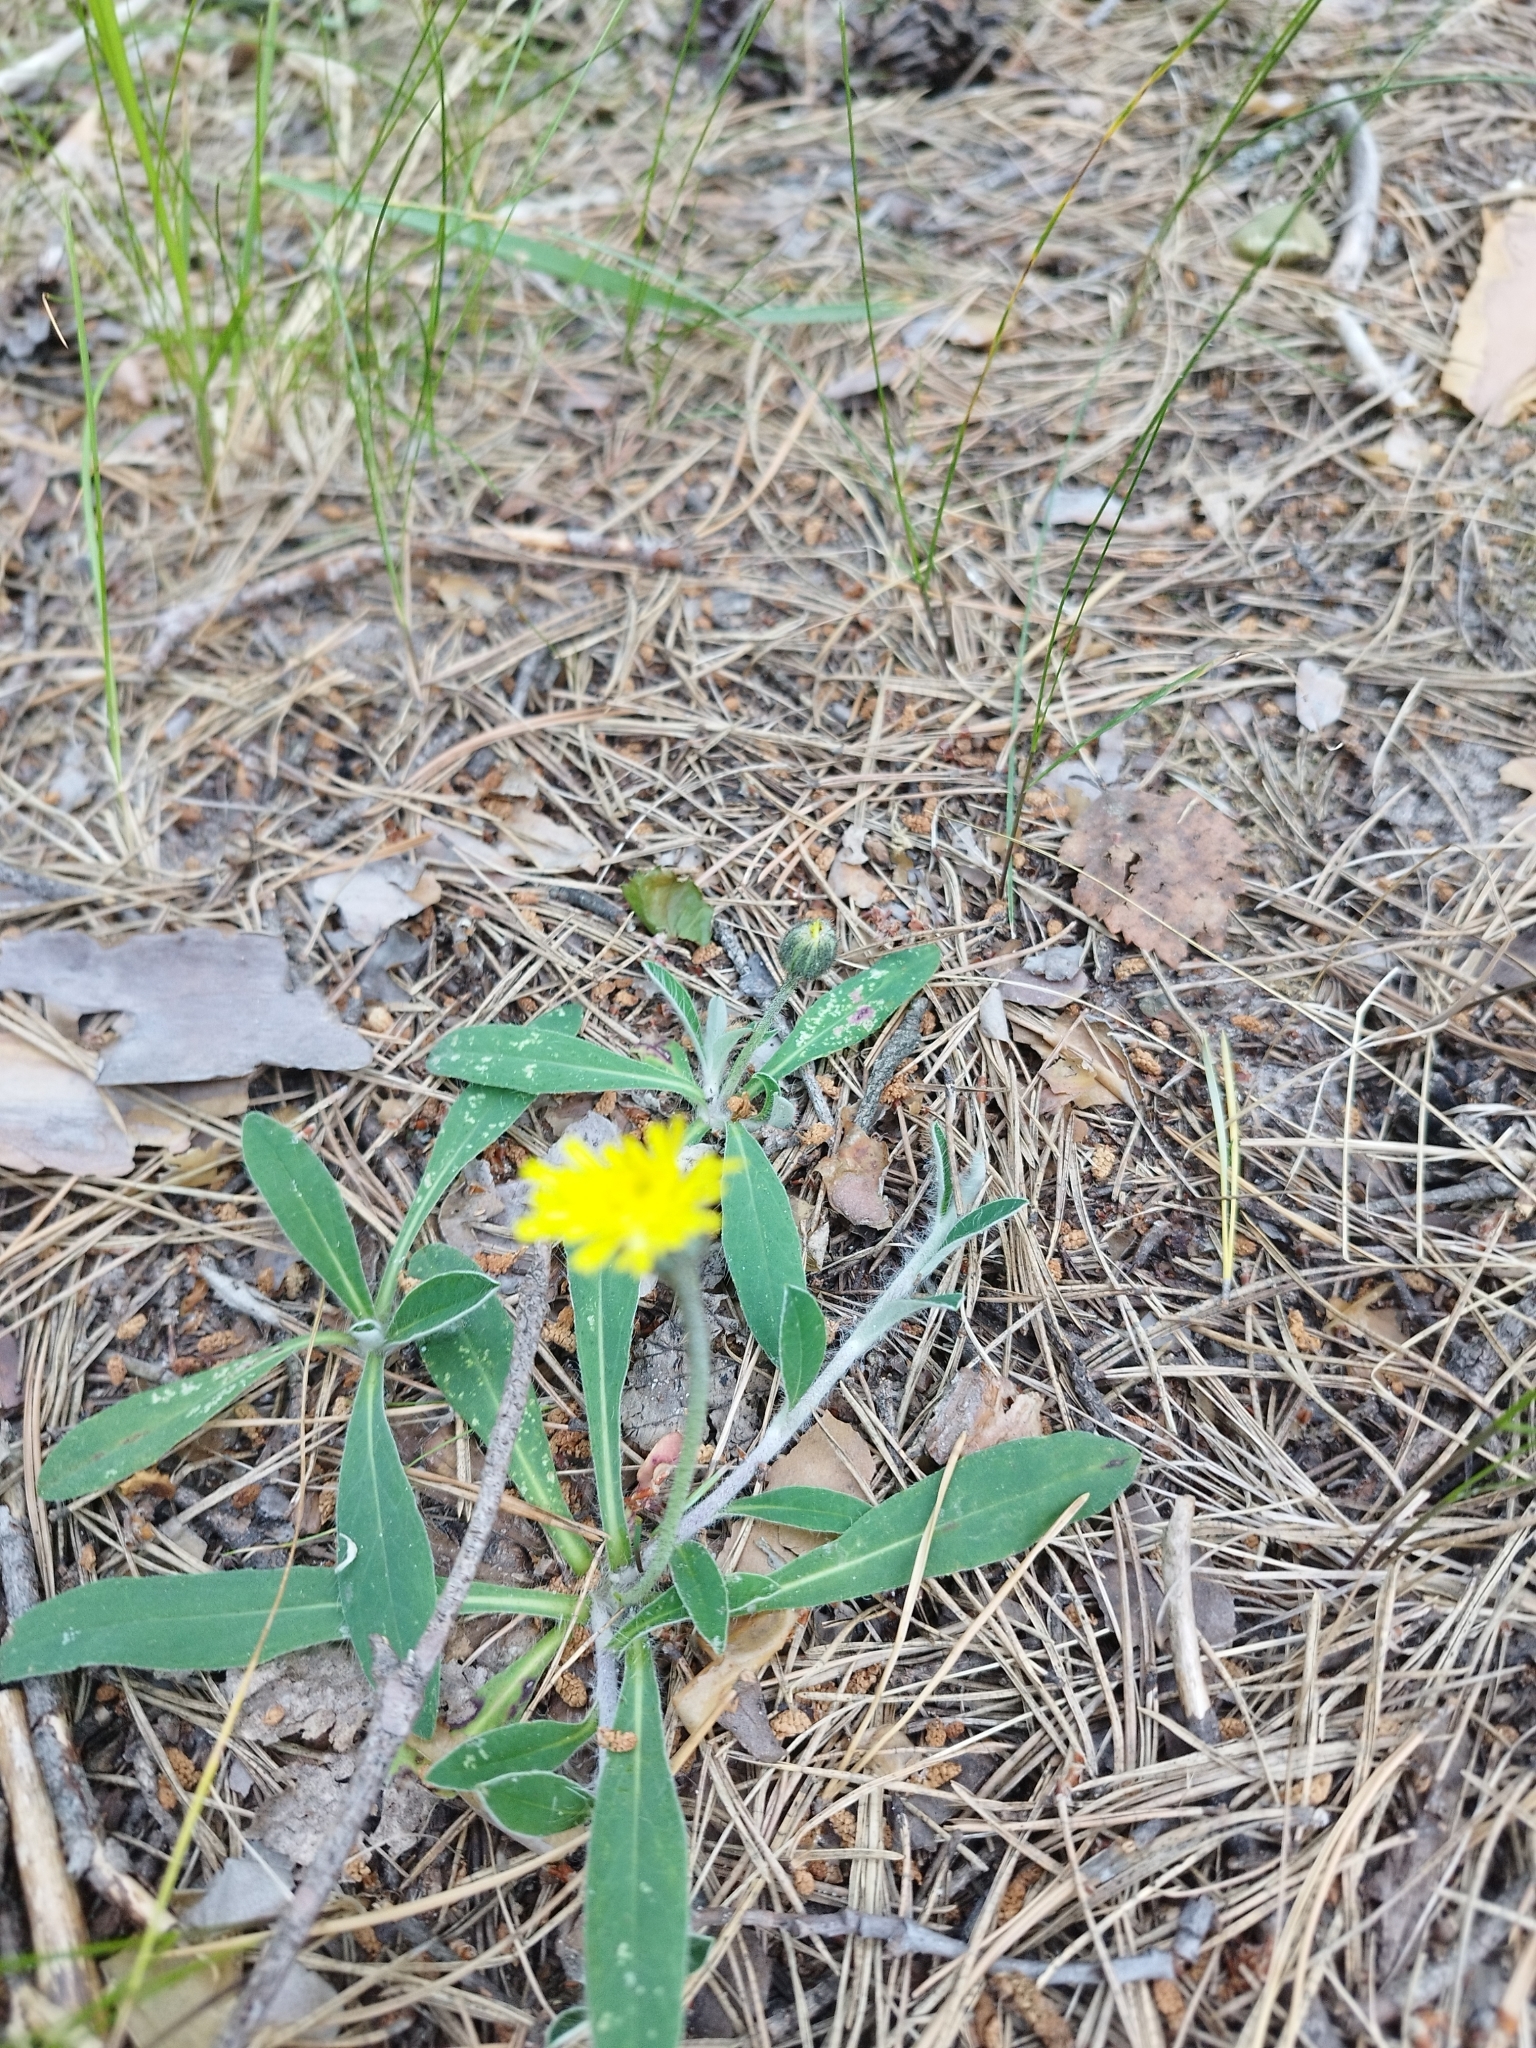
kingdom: Plantae
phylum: Tracheophyta
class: Magnoliopsida
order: Asterales
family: Asteraceae
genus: Pilosella
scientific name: Pilosella officinarum
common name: Mouse-ear hawkweed
